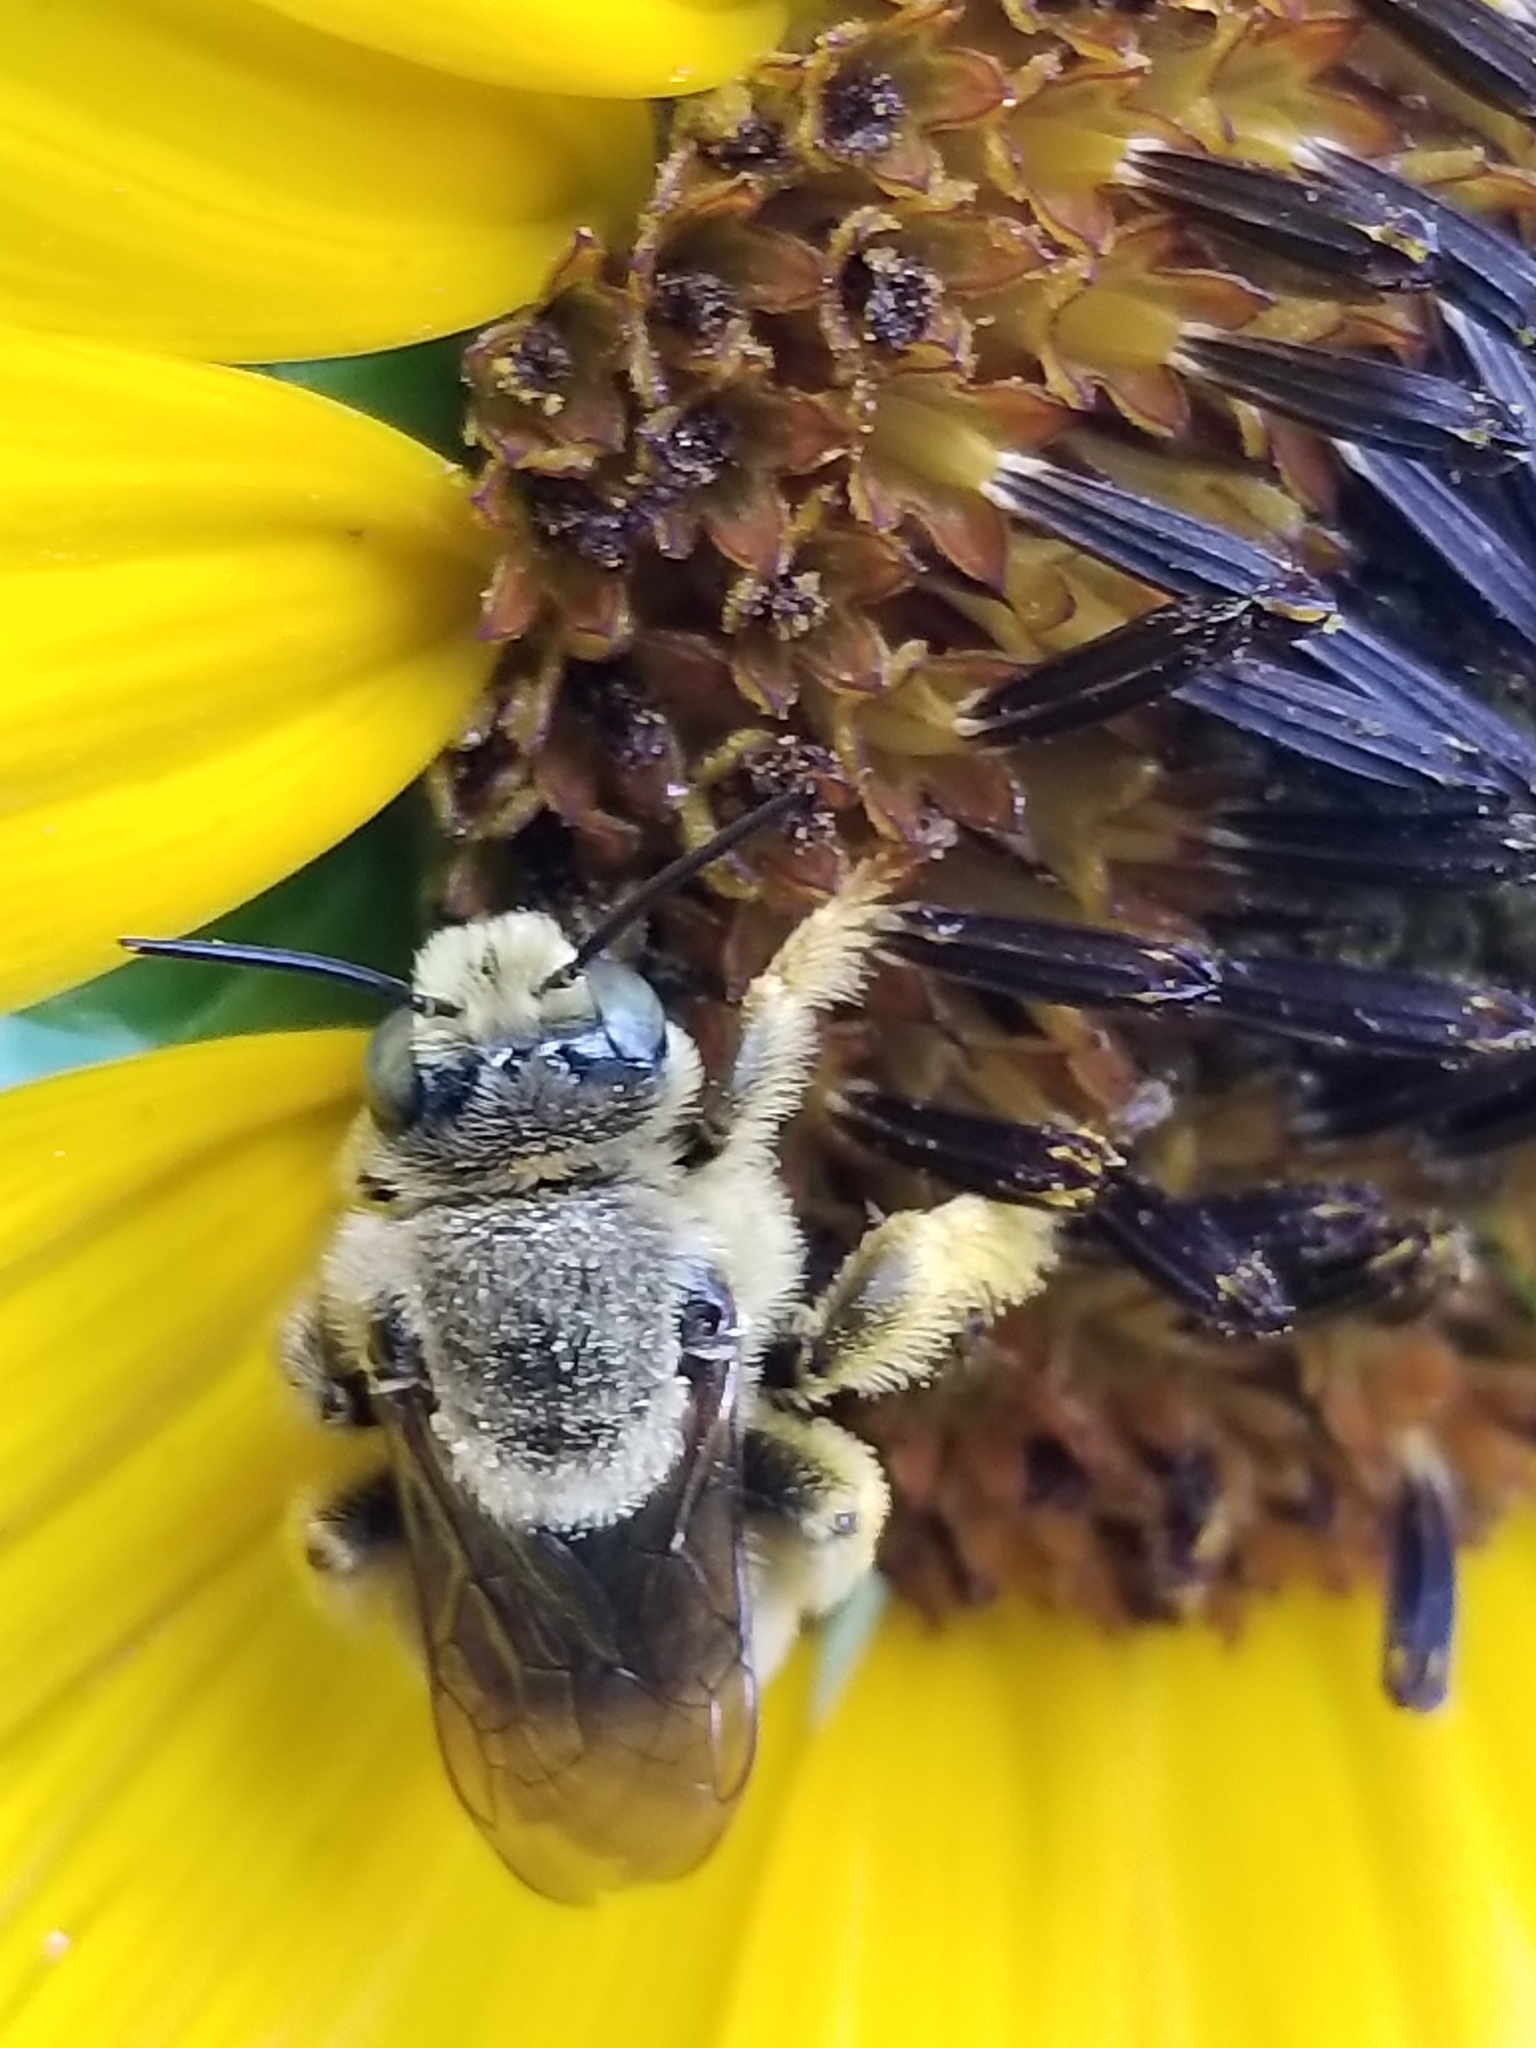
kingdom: Animalia
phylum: Arthropoda
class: Insecta
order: Hymenoptera
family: Apidae
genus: Diadasia
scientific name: Diadasia enavata
